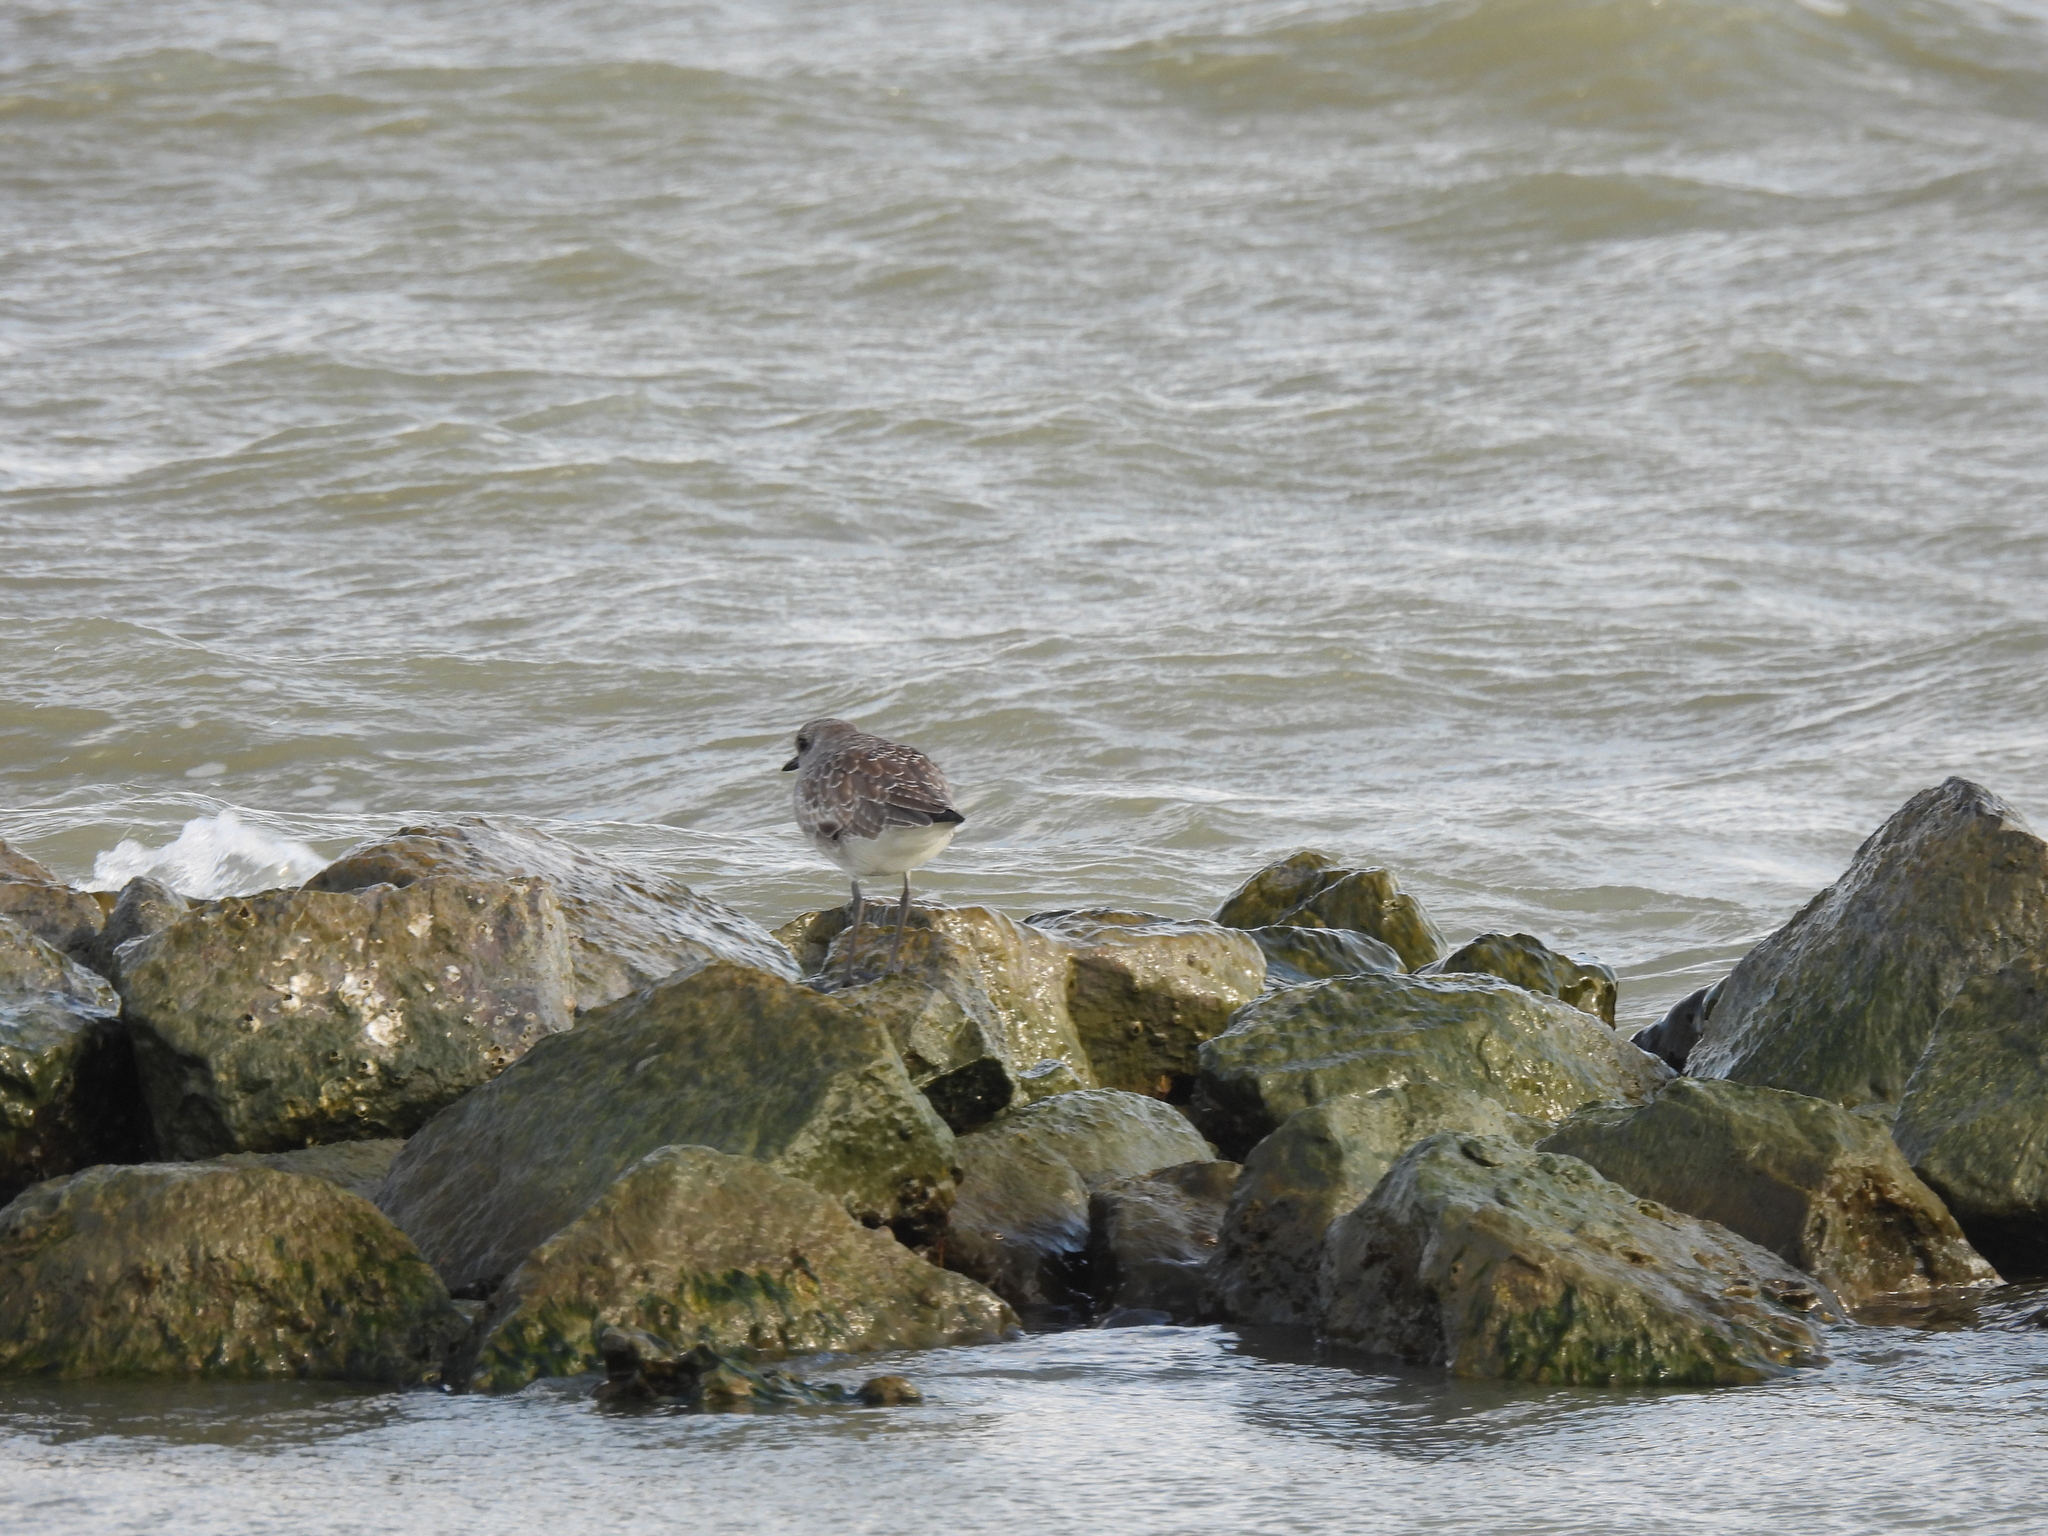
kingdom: Animalia
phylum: Chordata
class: Aves
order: Charadriiformes
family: Charadriidae
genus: Pluvialis
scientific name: Pluvialis squatarola
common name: Grey plover
